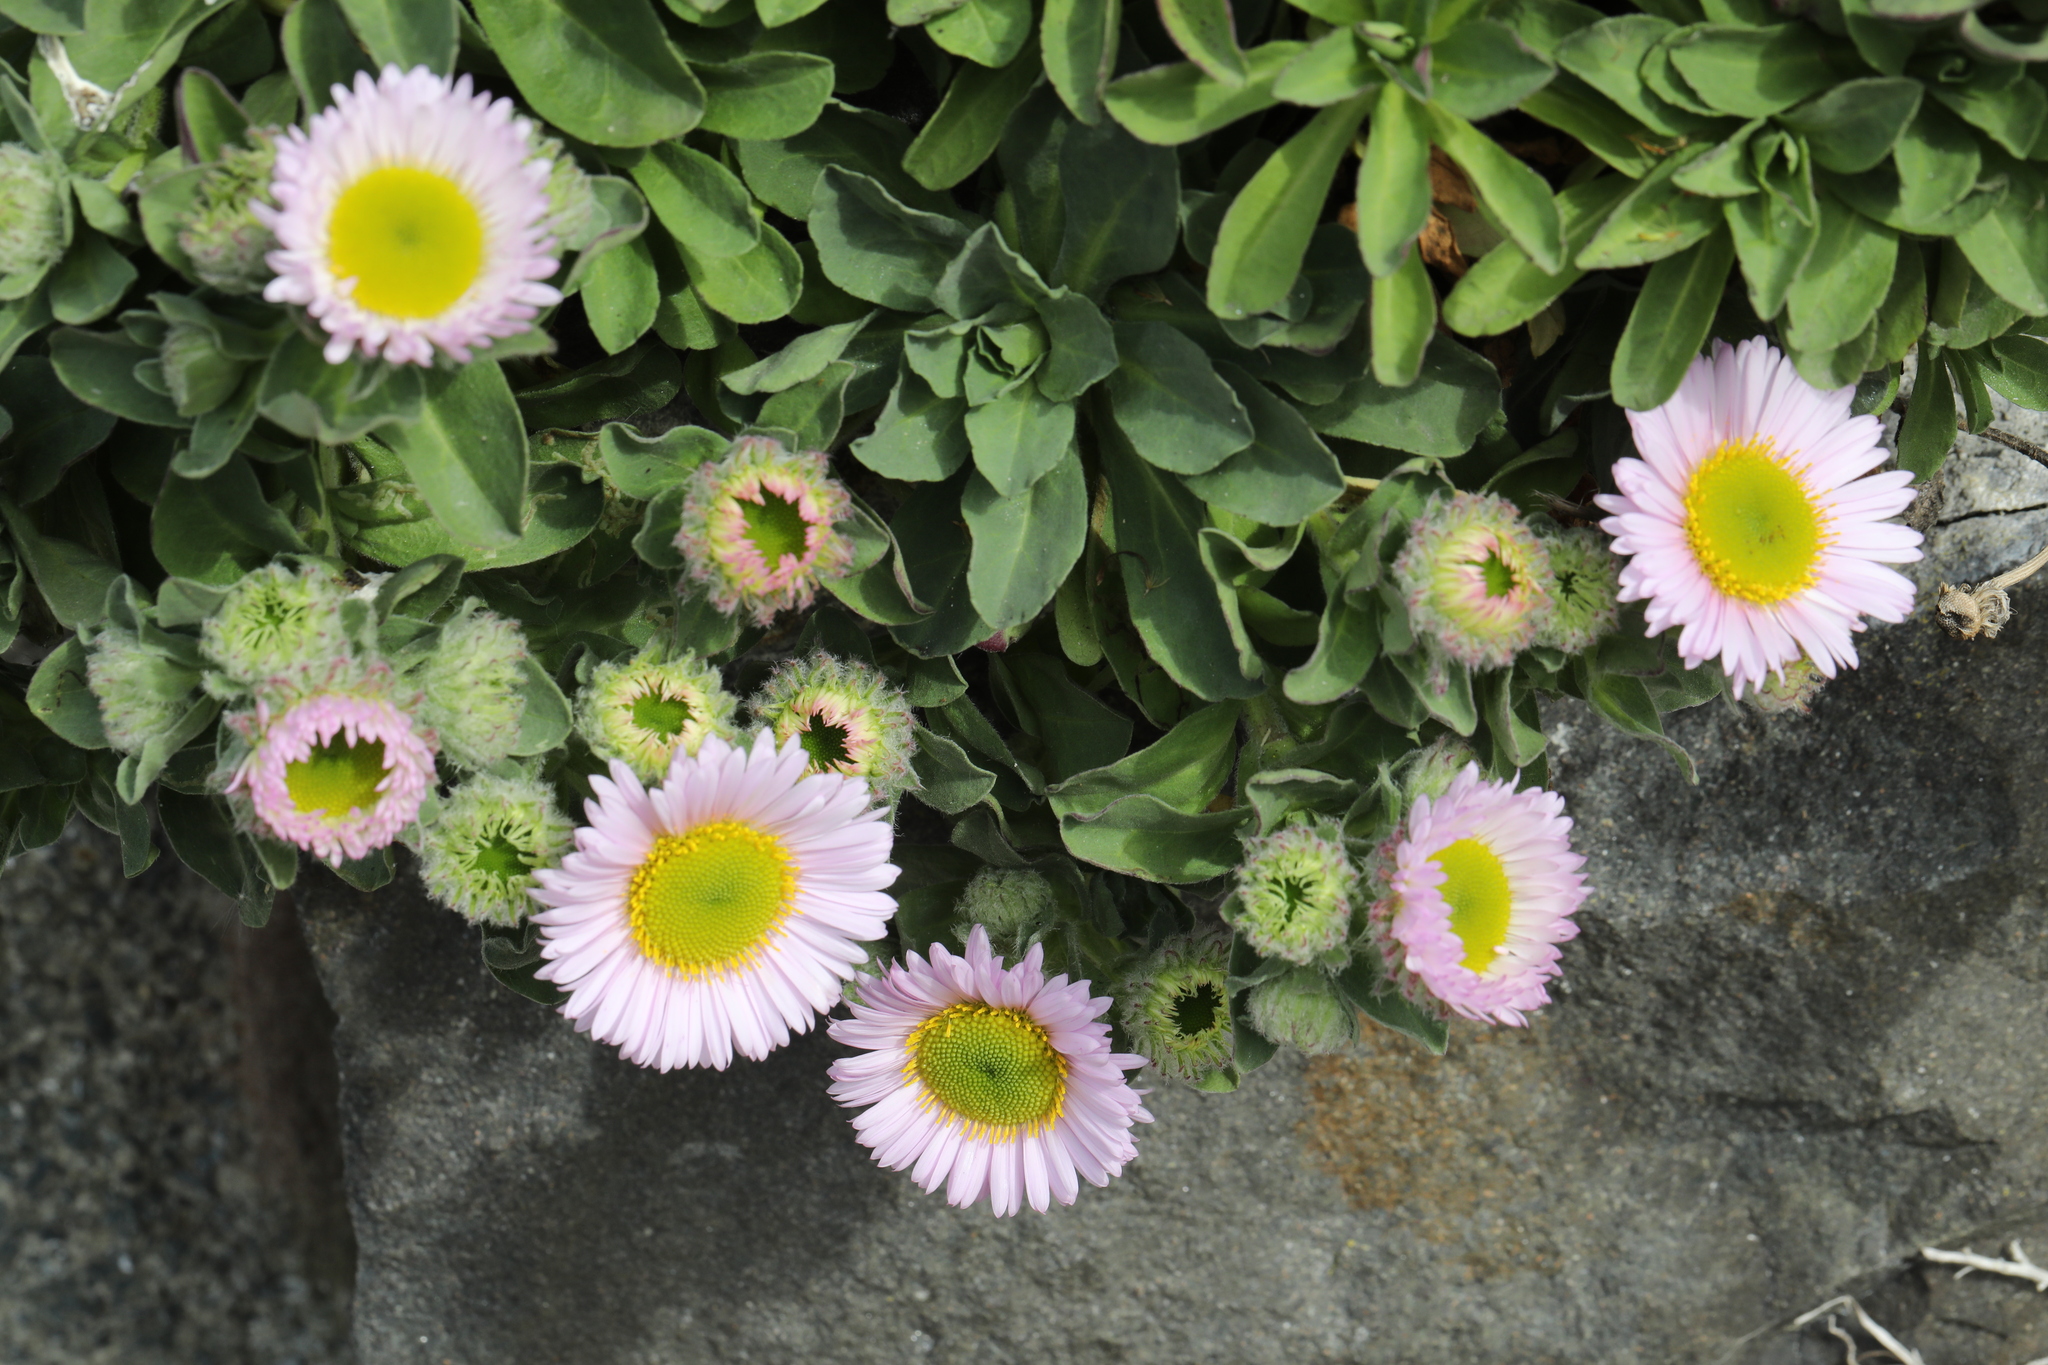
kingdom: Plantae
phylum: Tracheophyta
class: Magnoliopsida
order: Asterales
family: Asteraceae
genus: Erigeron
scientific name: Erigeron glaucus
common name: Seaside daisy
